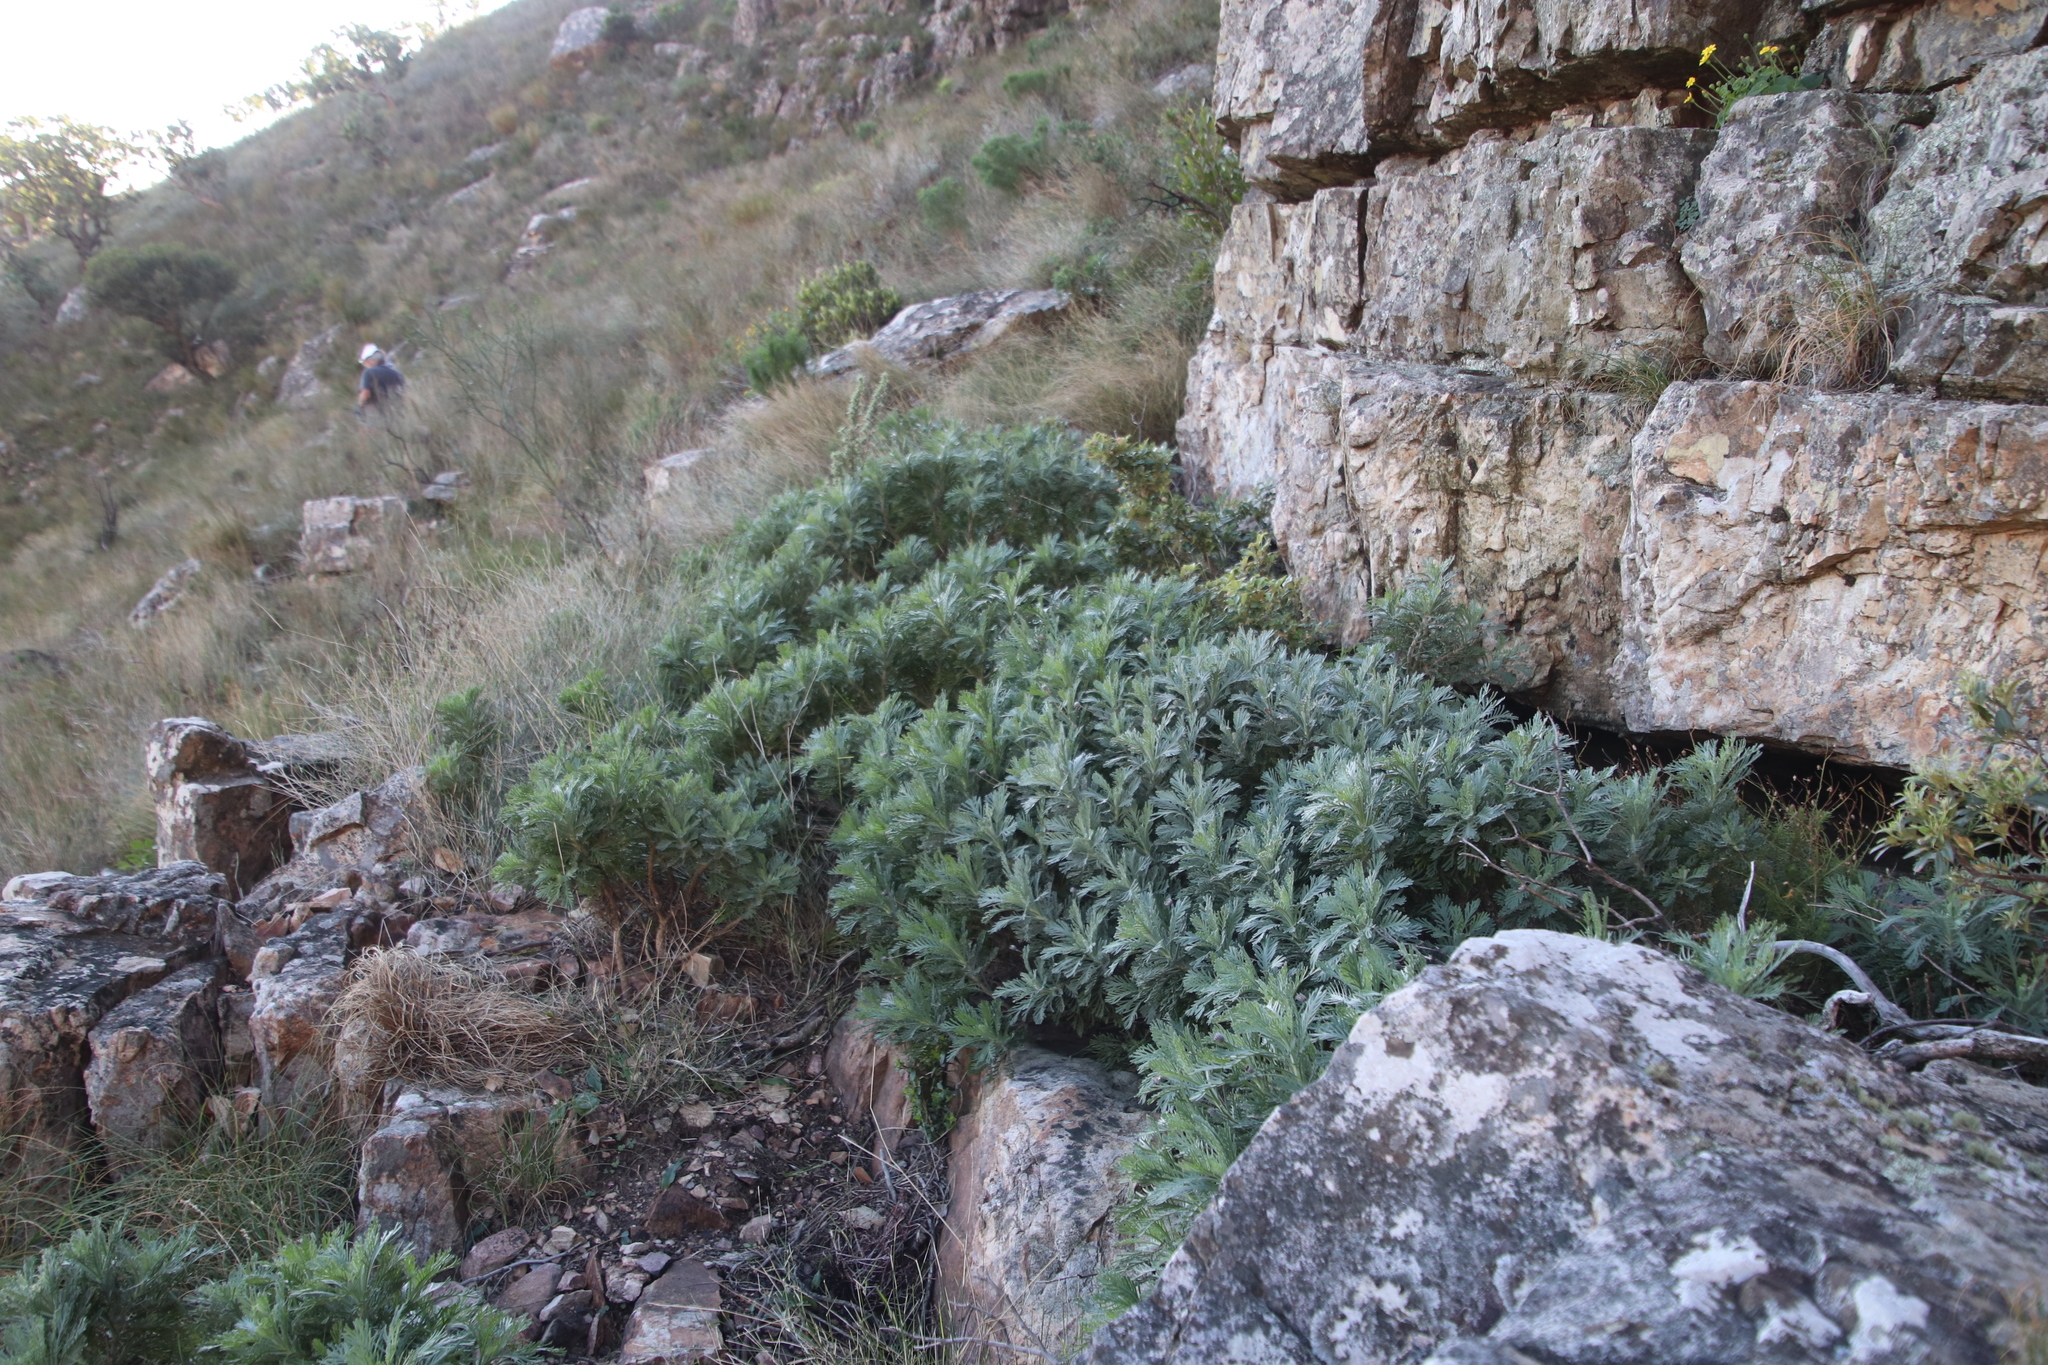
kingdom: Plantae
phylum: Tracheophyta
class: Magnoliopsida
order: Asterales
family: Asteraceae
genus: Euryops
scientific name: Euryops pectinatus
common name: Gray-leaf euryops
